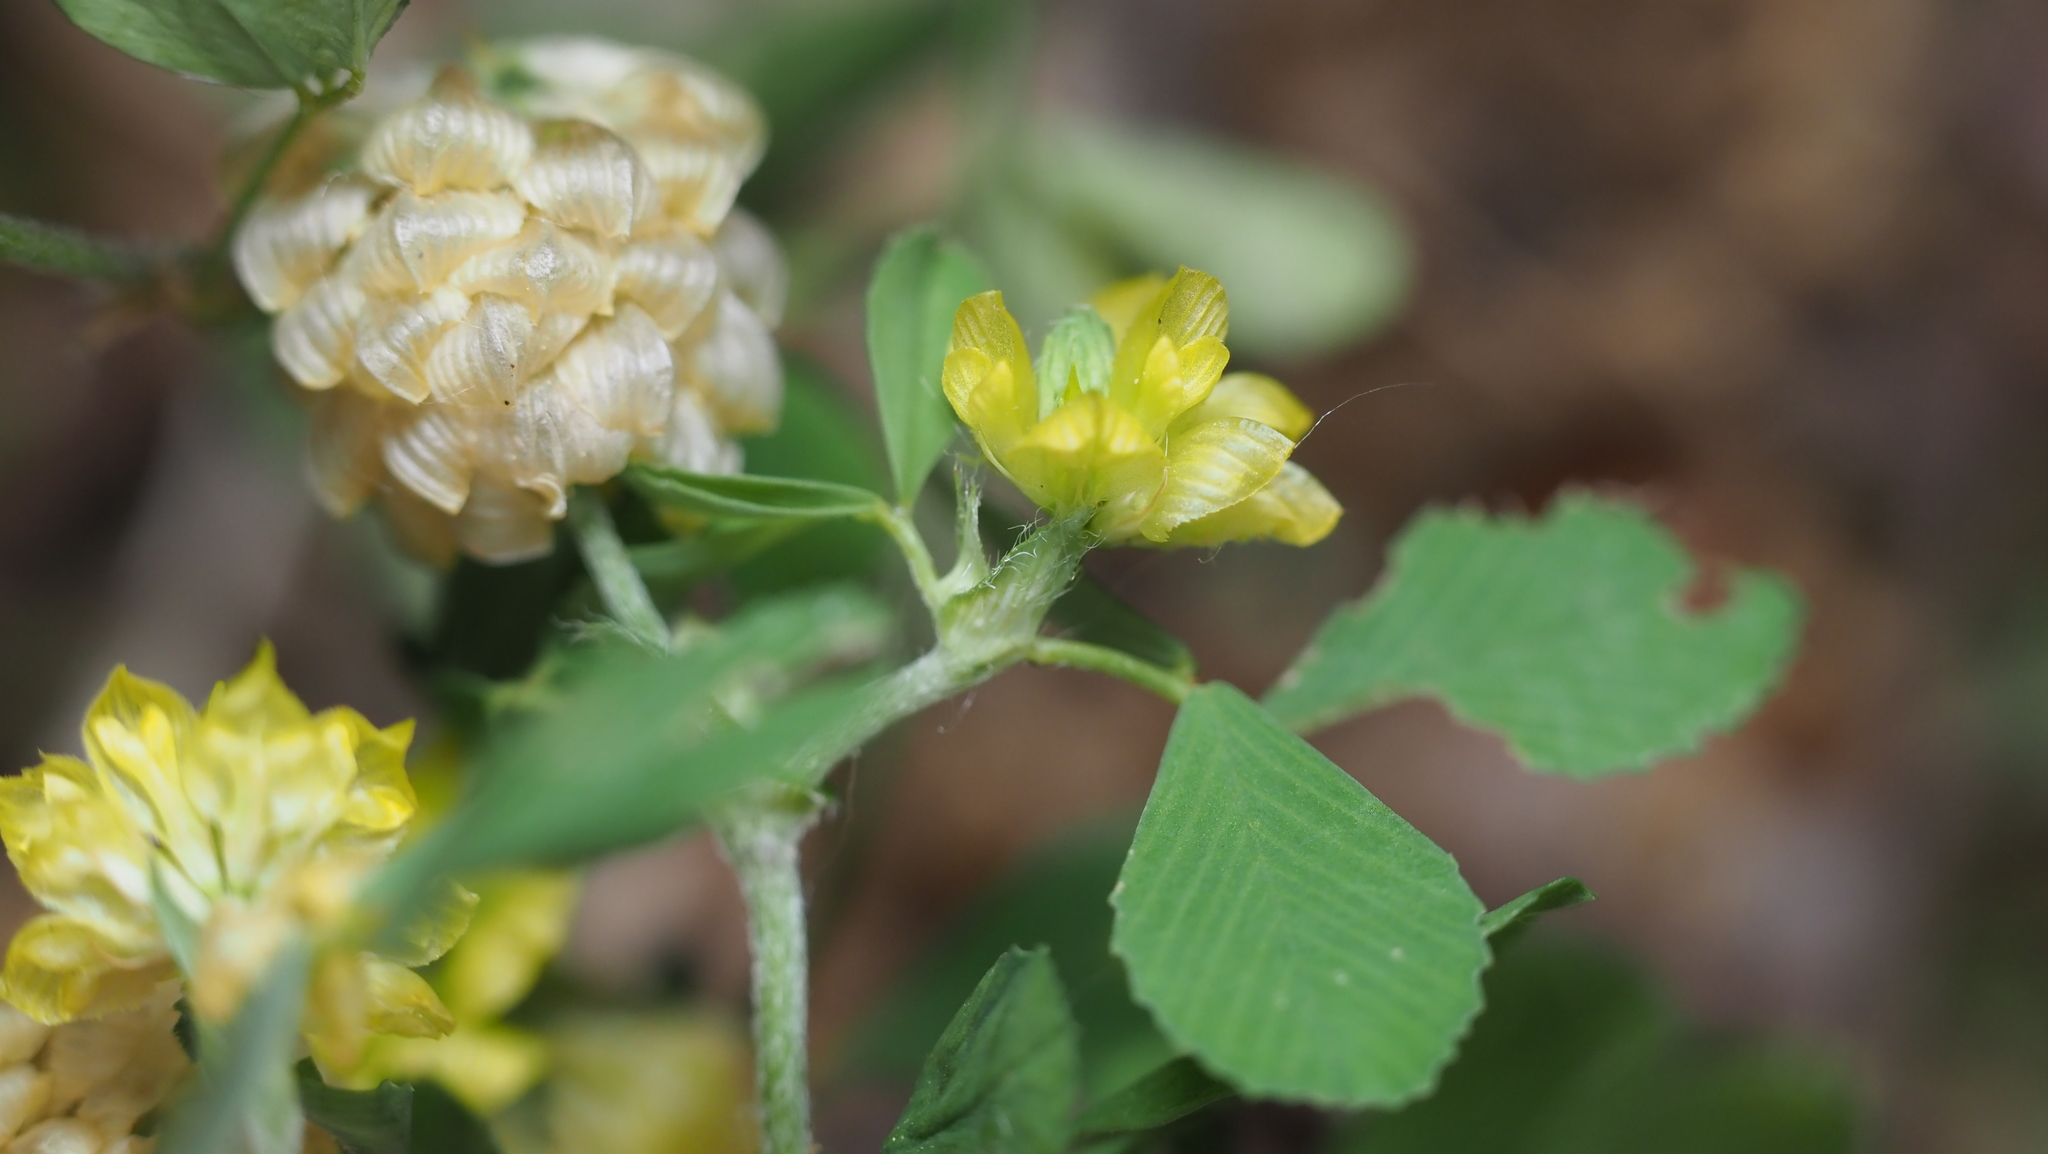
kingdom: Plantae
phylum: Tracheophyta
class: Magnoliopsida
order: Fabales
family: Fabaceae
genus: Trifolium
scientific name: Trifolium campestre
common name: Field clover
